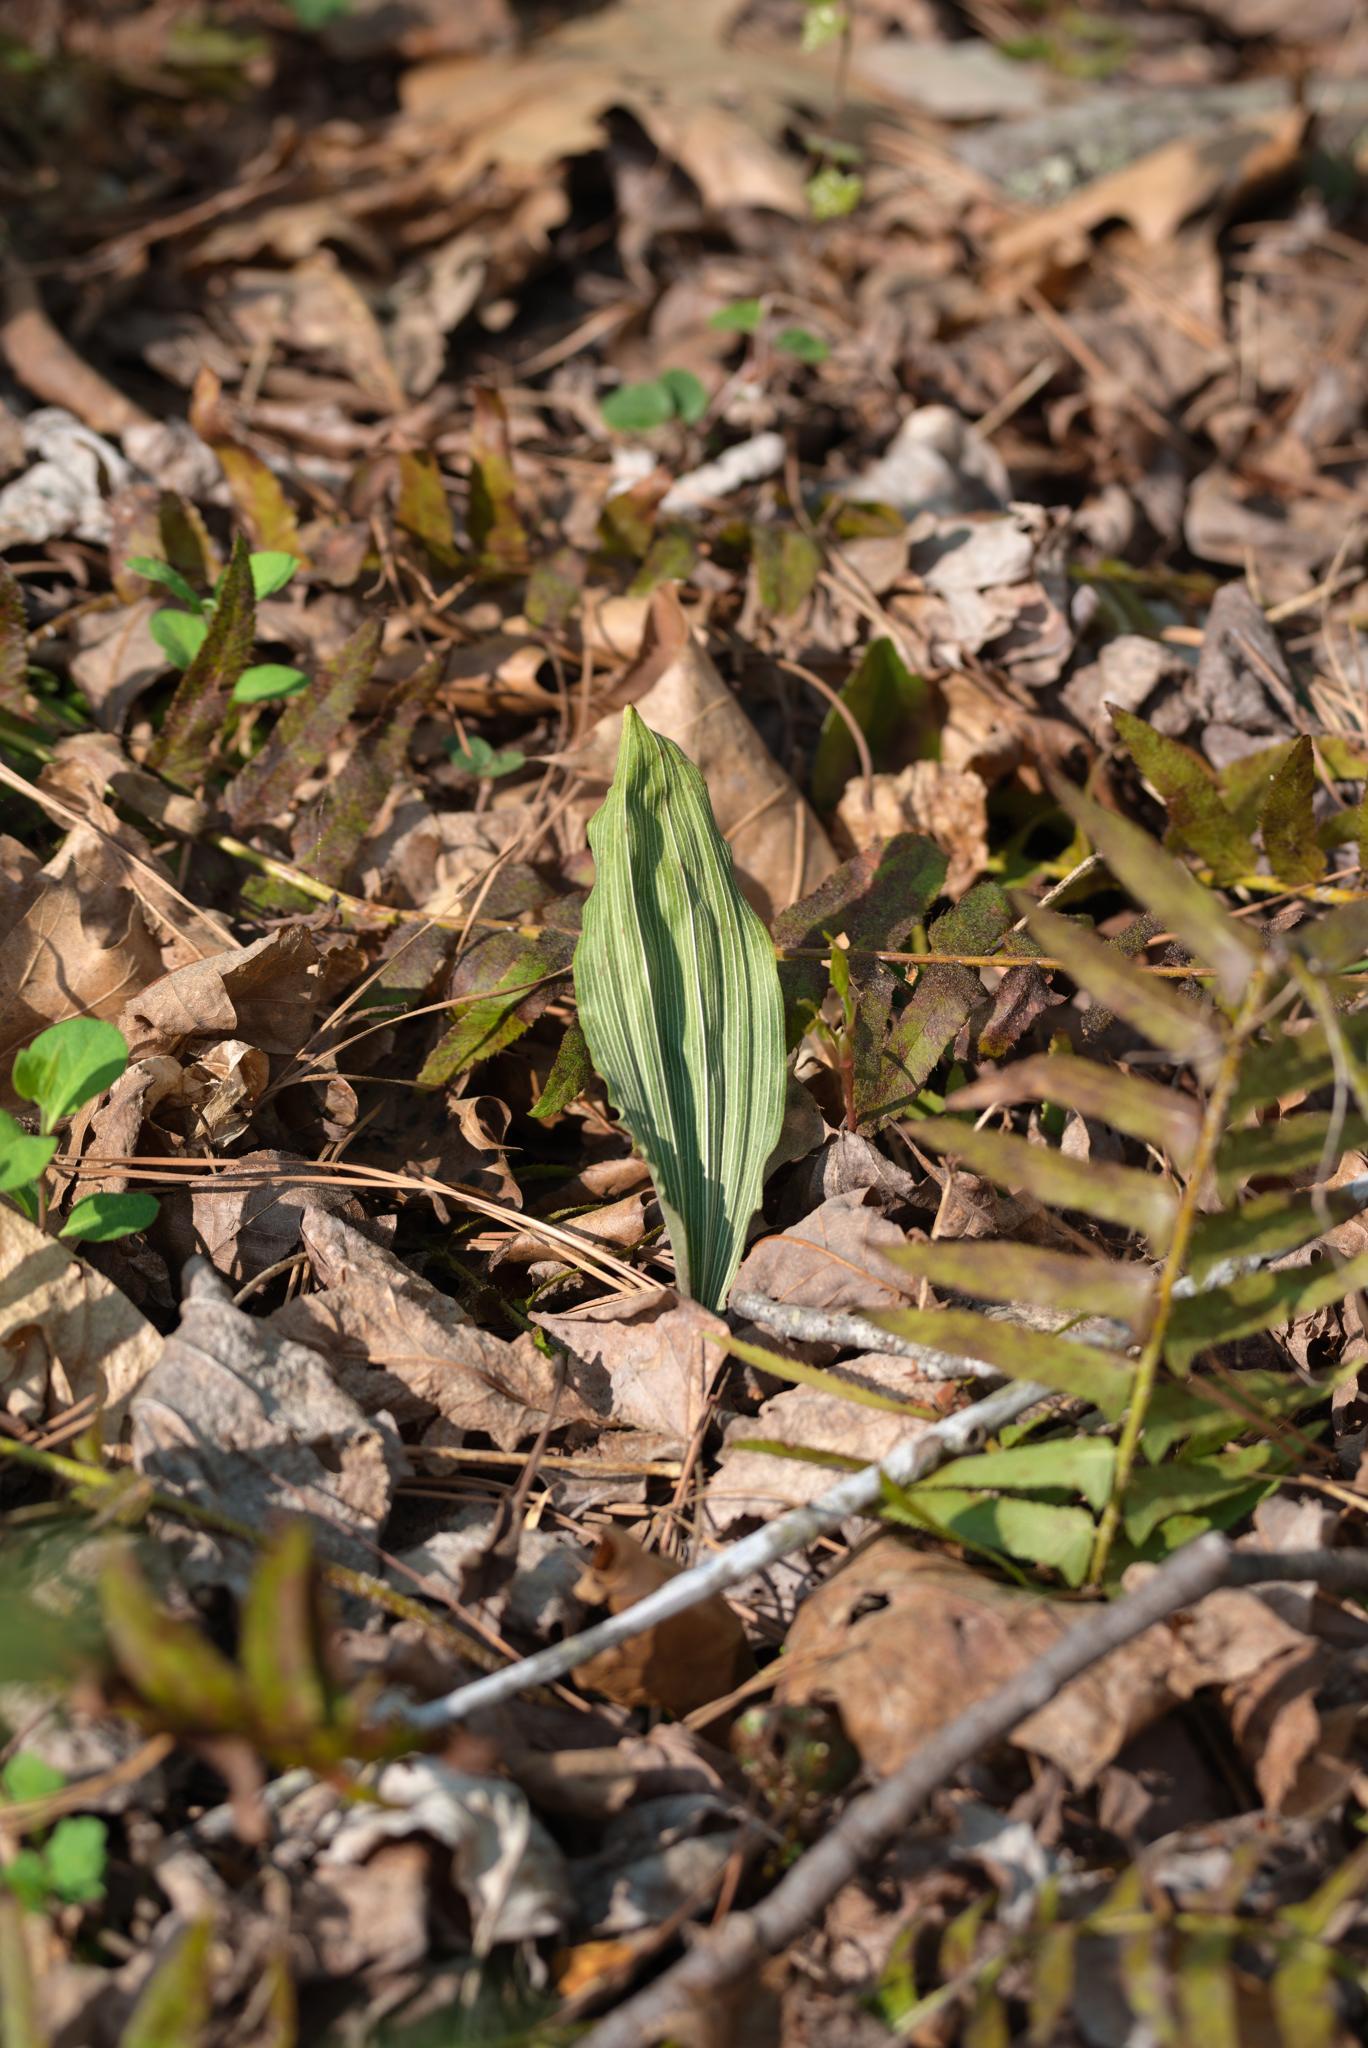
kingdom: Plantae
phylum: Tracheophyta
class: Liliopsida
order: Asparagales
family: Orchidaceae
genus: Aplectrum
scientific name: Aplectrum hyemale
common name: Adam-and-eve
